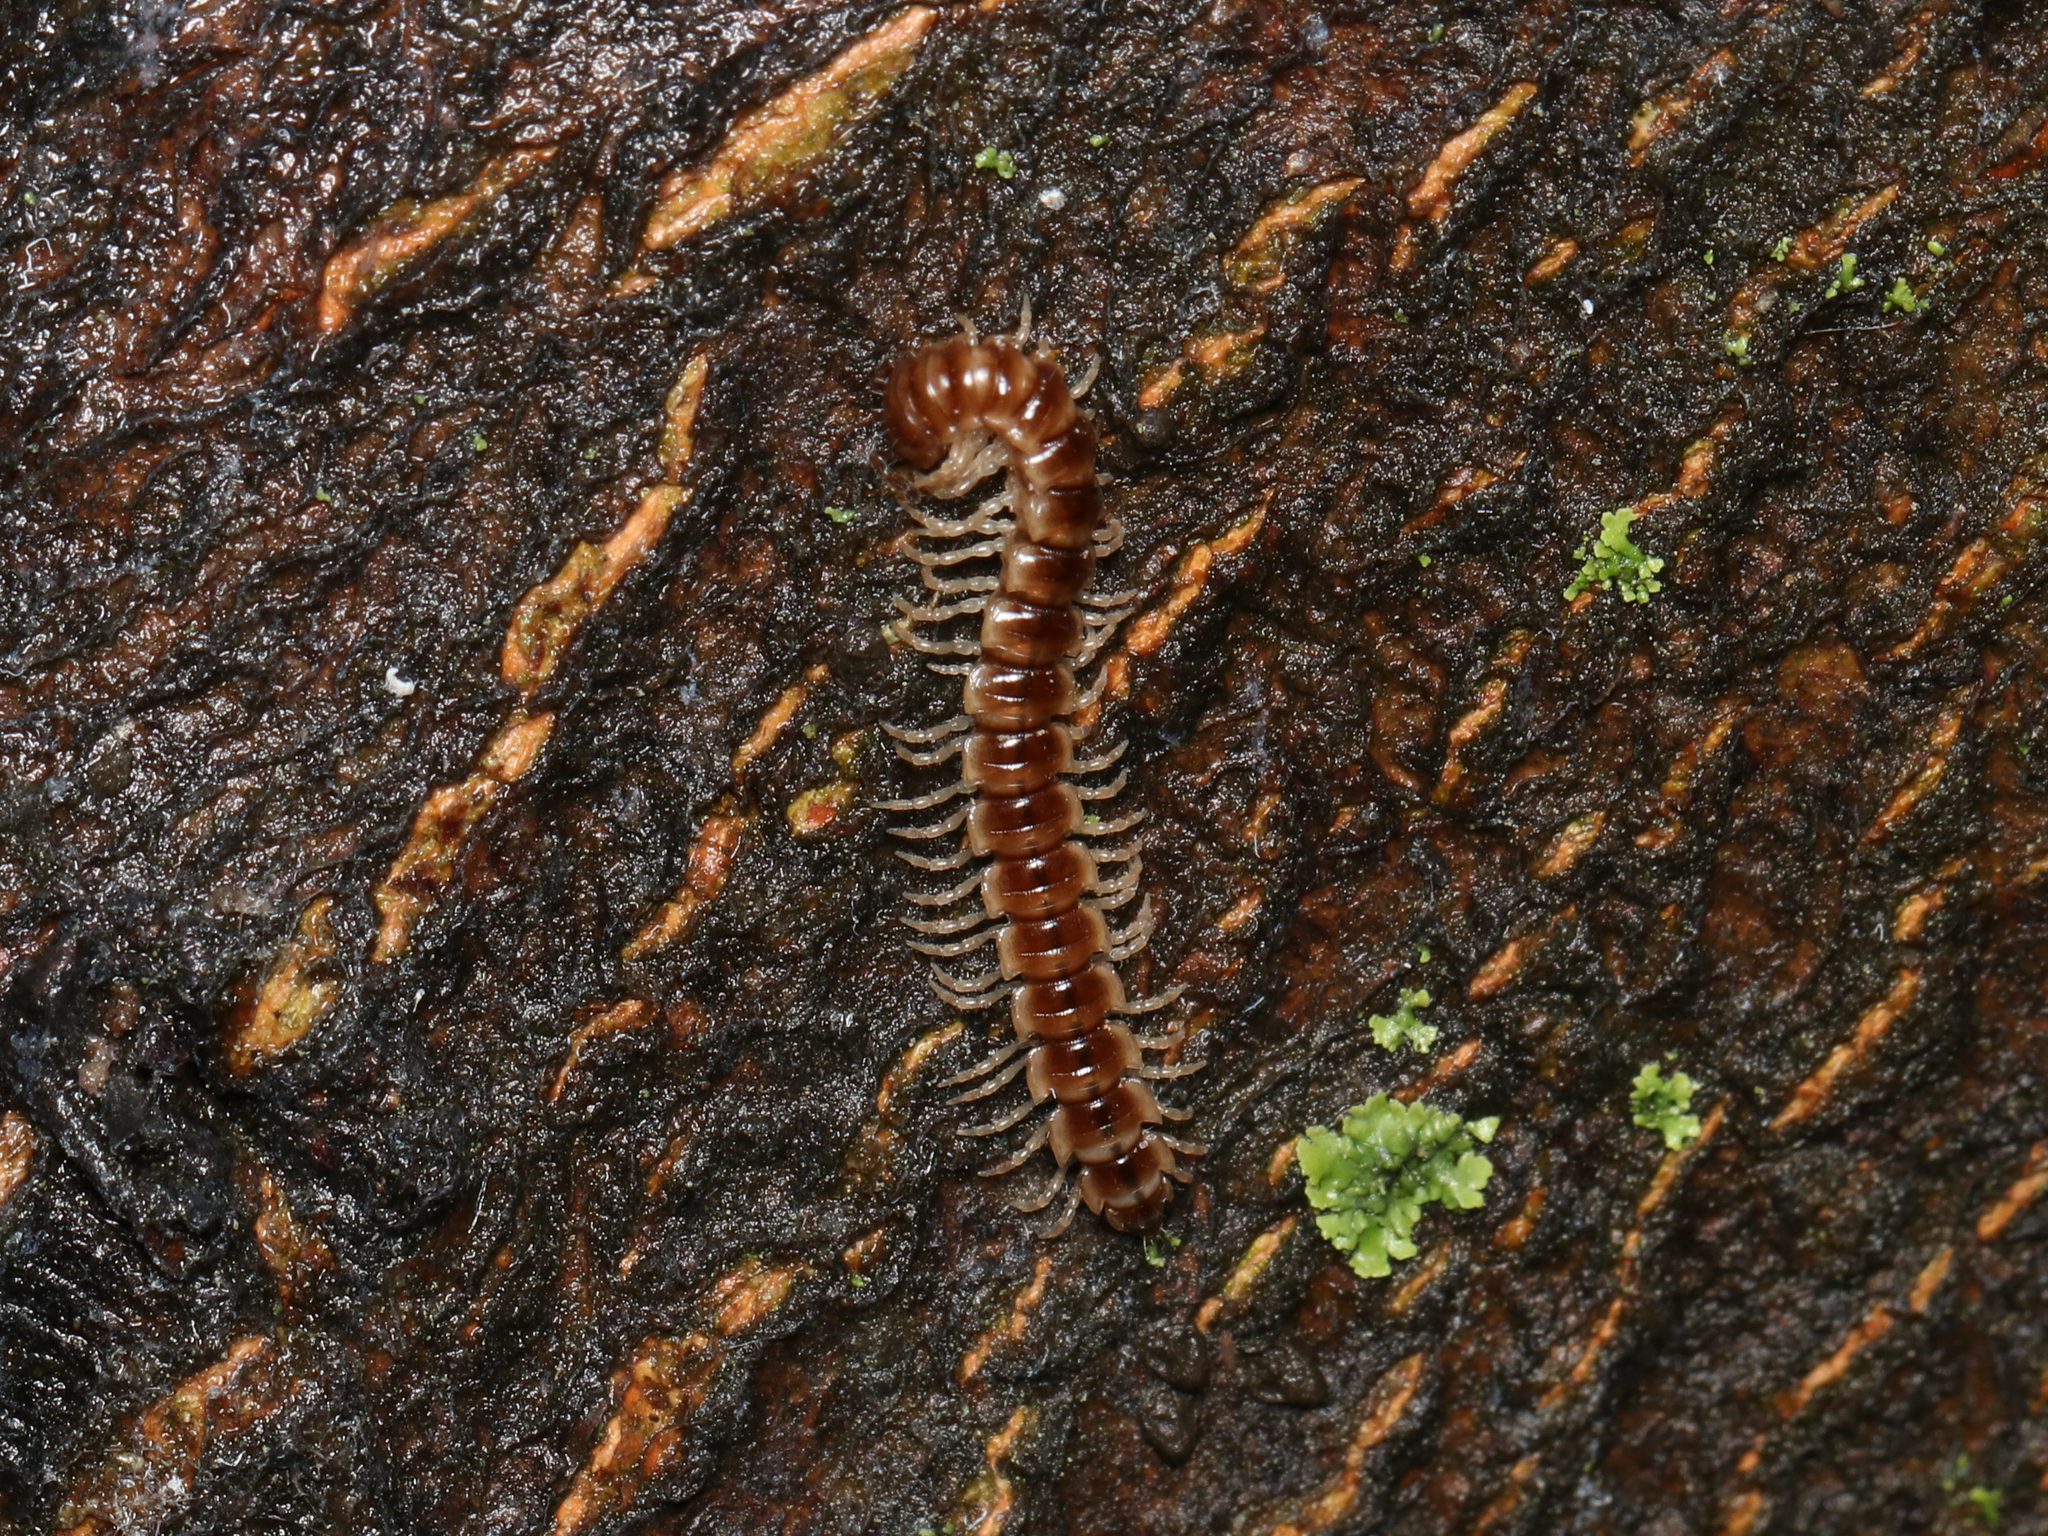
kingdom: Animalia
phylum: Arthropoda
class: Diplopoda
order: Polydesmida
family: Paradoxosomatidae
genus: Oxidus
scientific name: Oxidus gracilis
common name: Greenhouse millipede
